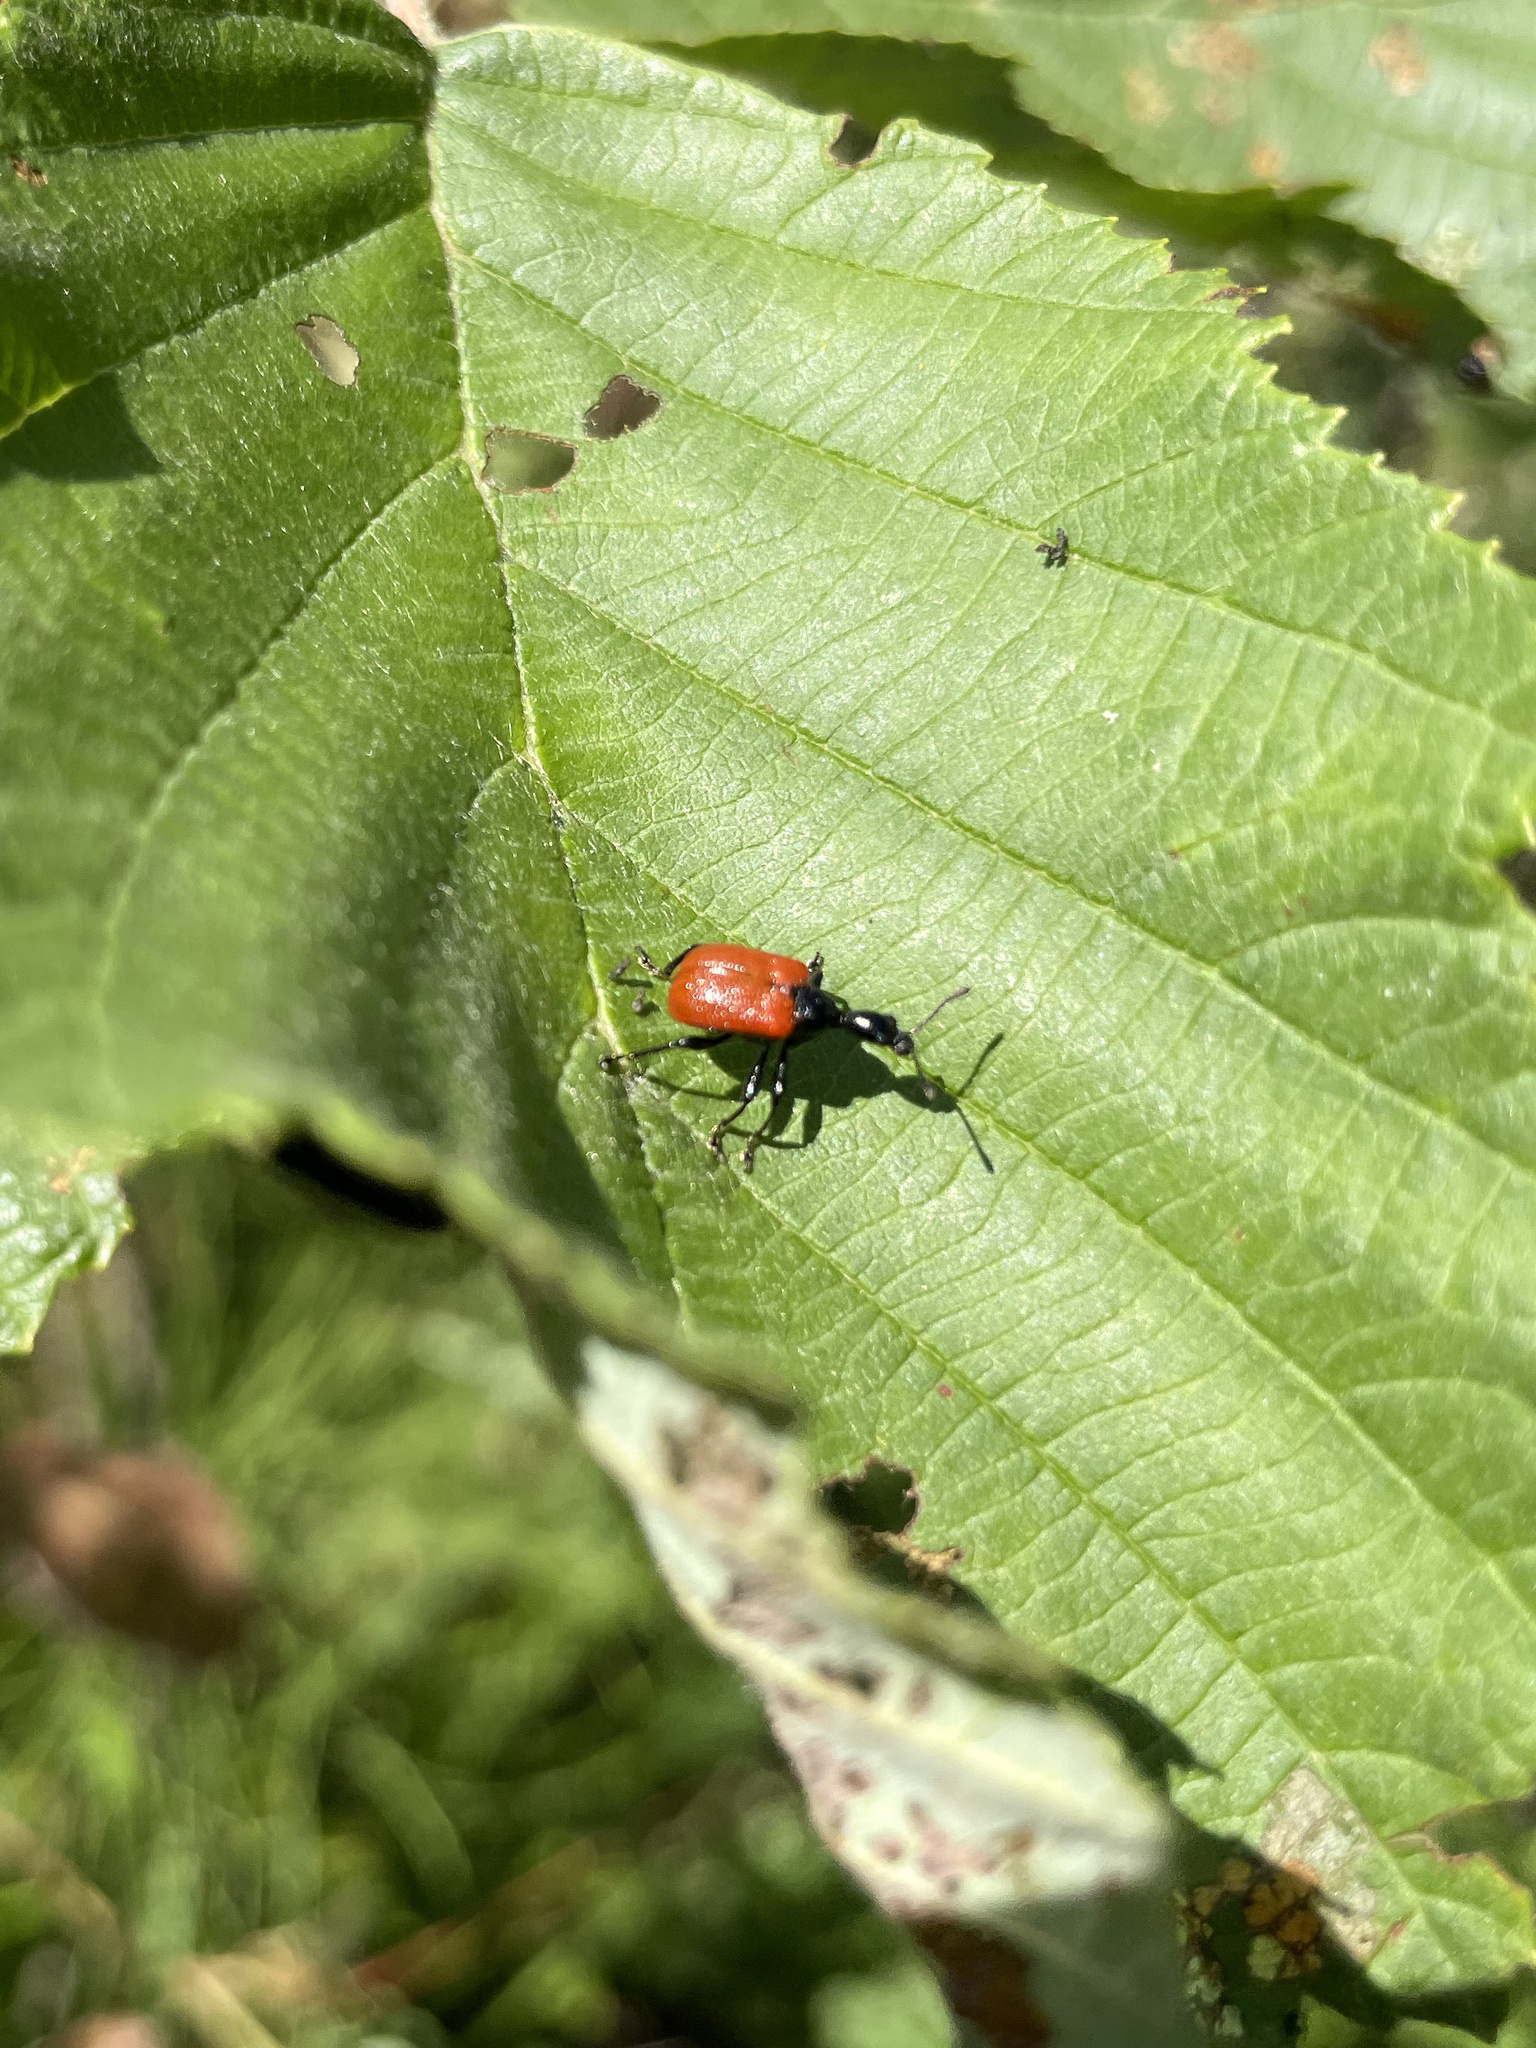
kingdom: Animalia
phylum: Arthropoda
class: Insecta
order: Coleoptera
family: Attelabidae
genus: Apoderus
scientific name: Apoderus coryli
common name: Hazel leaf roller
